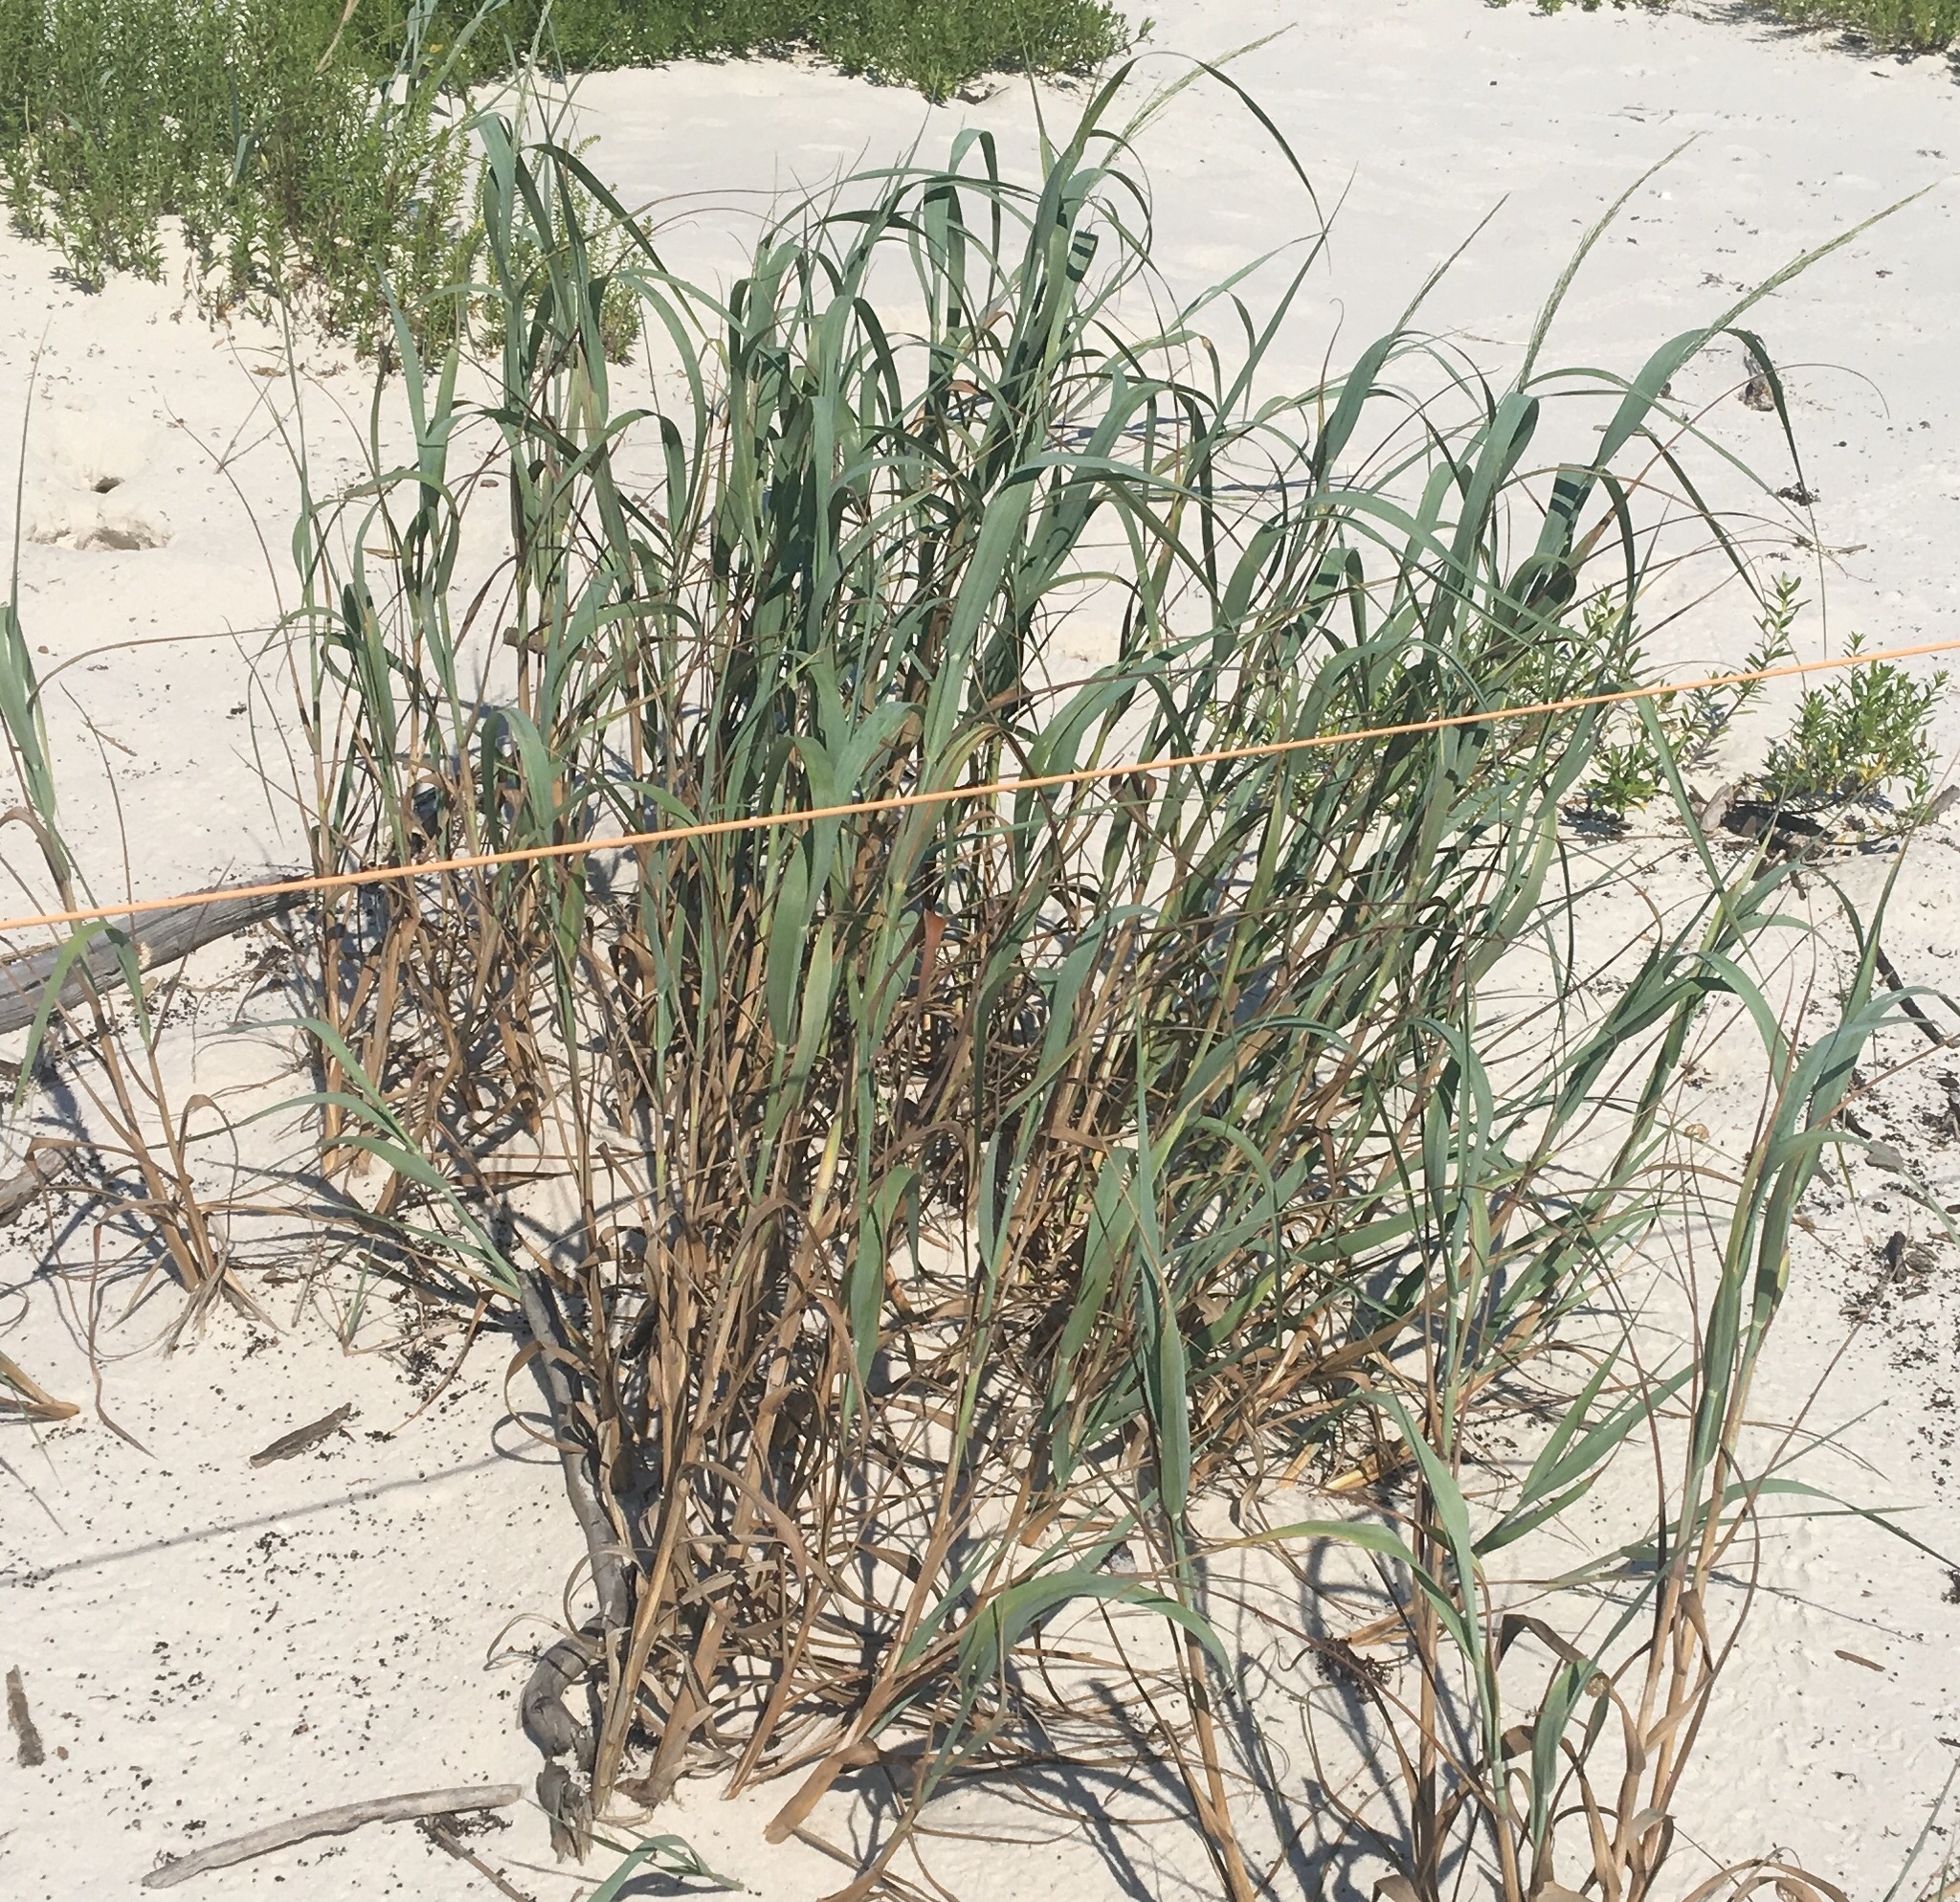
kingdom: Plantae
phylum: Tracheophyta
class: Liliopsida
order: Poales
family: Poaceae
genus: Panicum
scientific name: Panicum amarum
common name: Bitter panicum
